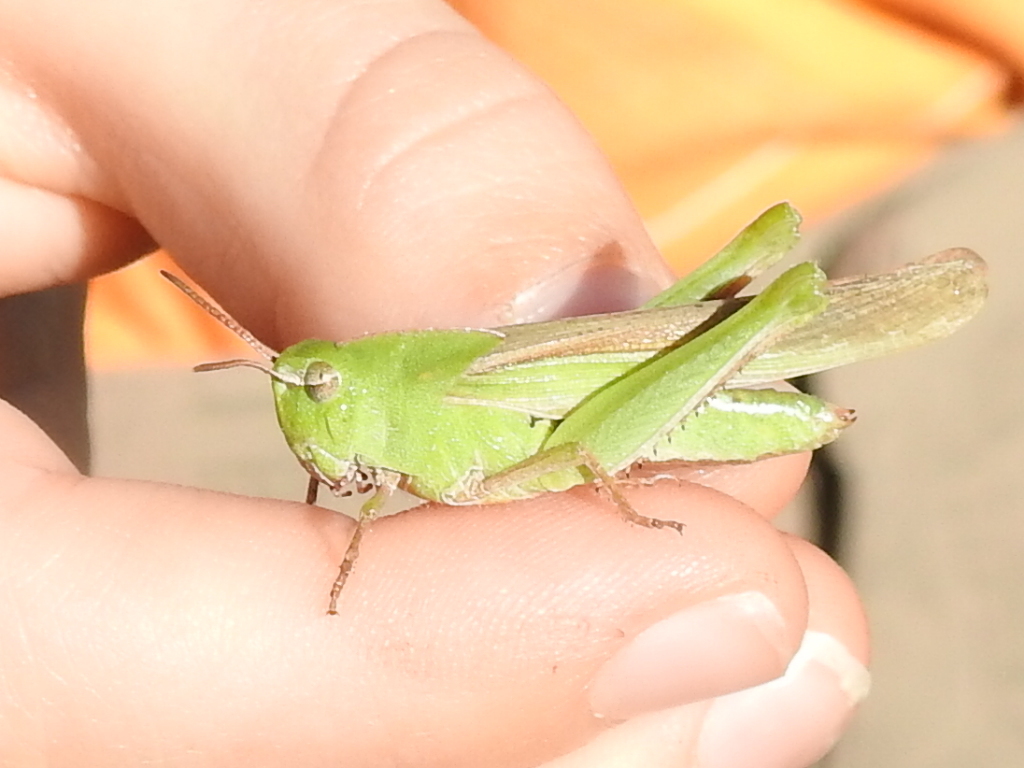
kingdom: Animalia
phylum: Arthropoda
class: Insecta
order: Orthoptera
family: Acrididae
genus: Chortophaga
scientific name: Chortophaga viridifasciata
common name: Green-striped grasshopper
